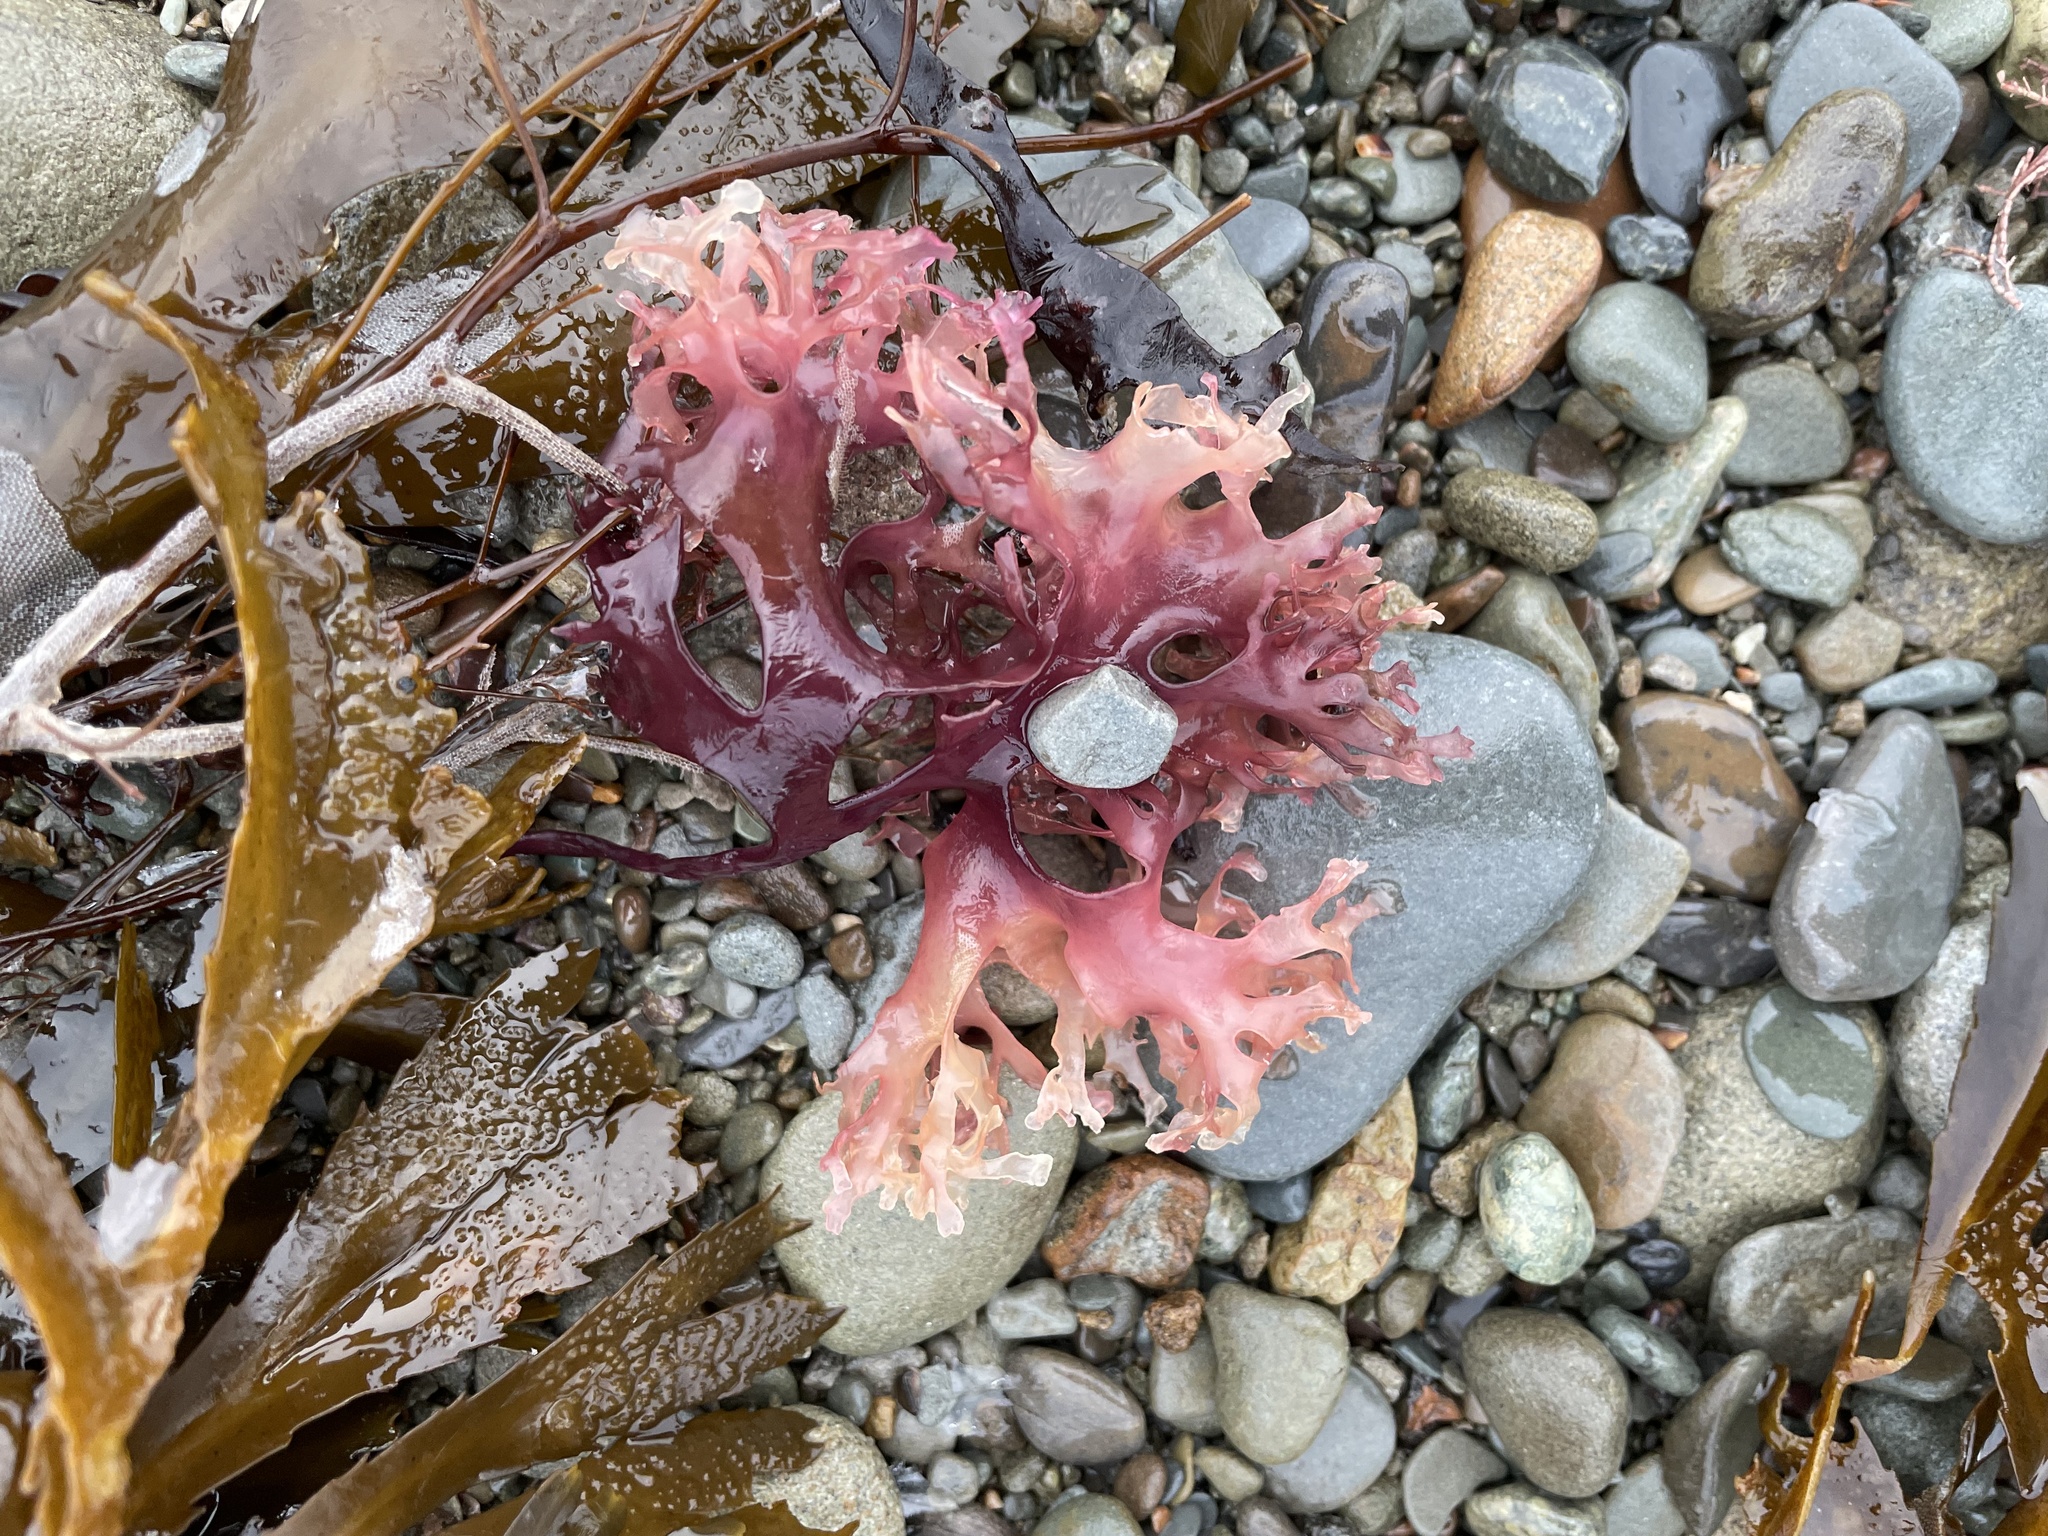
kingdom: Plantae
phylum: Rhodophyta
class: Florideophyceae
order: Gigartinales
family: Gigartinaceae
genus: Chondrus
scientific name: Chondrus crispus
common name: Carrageen
